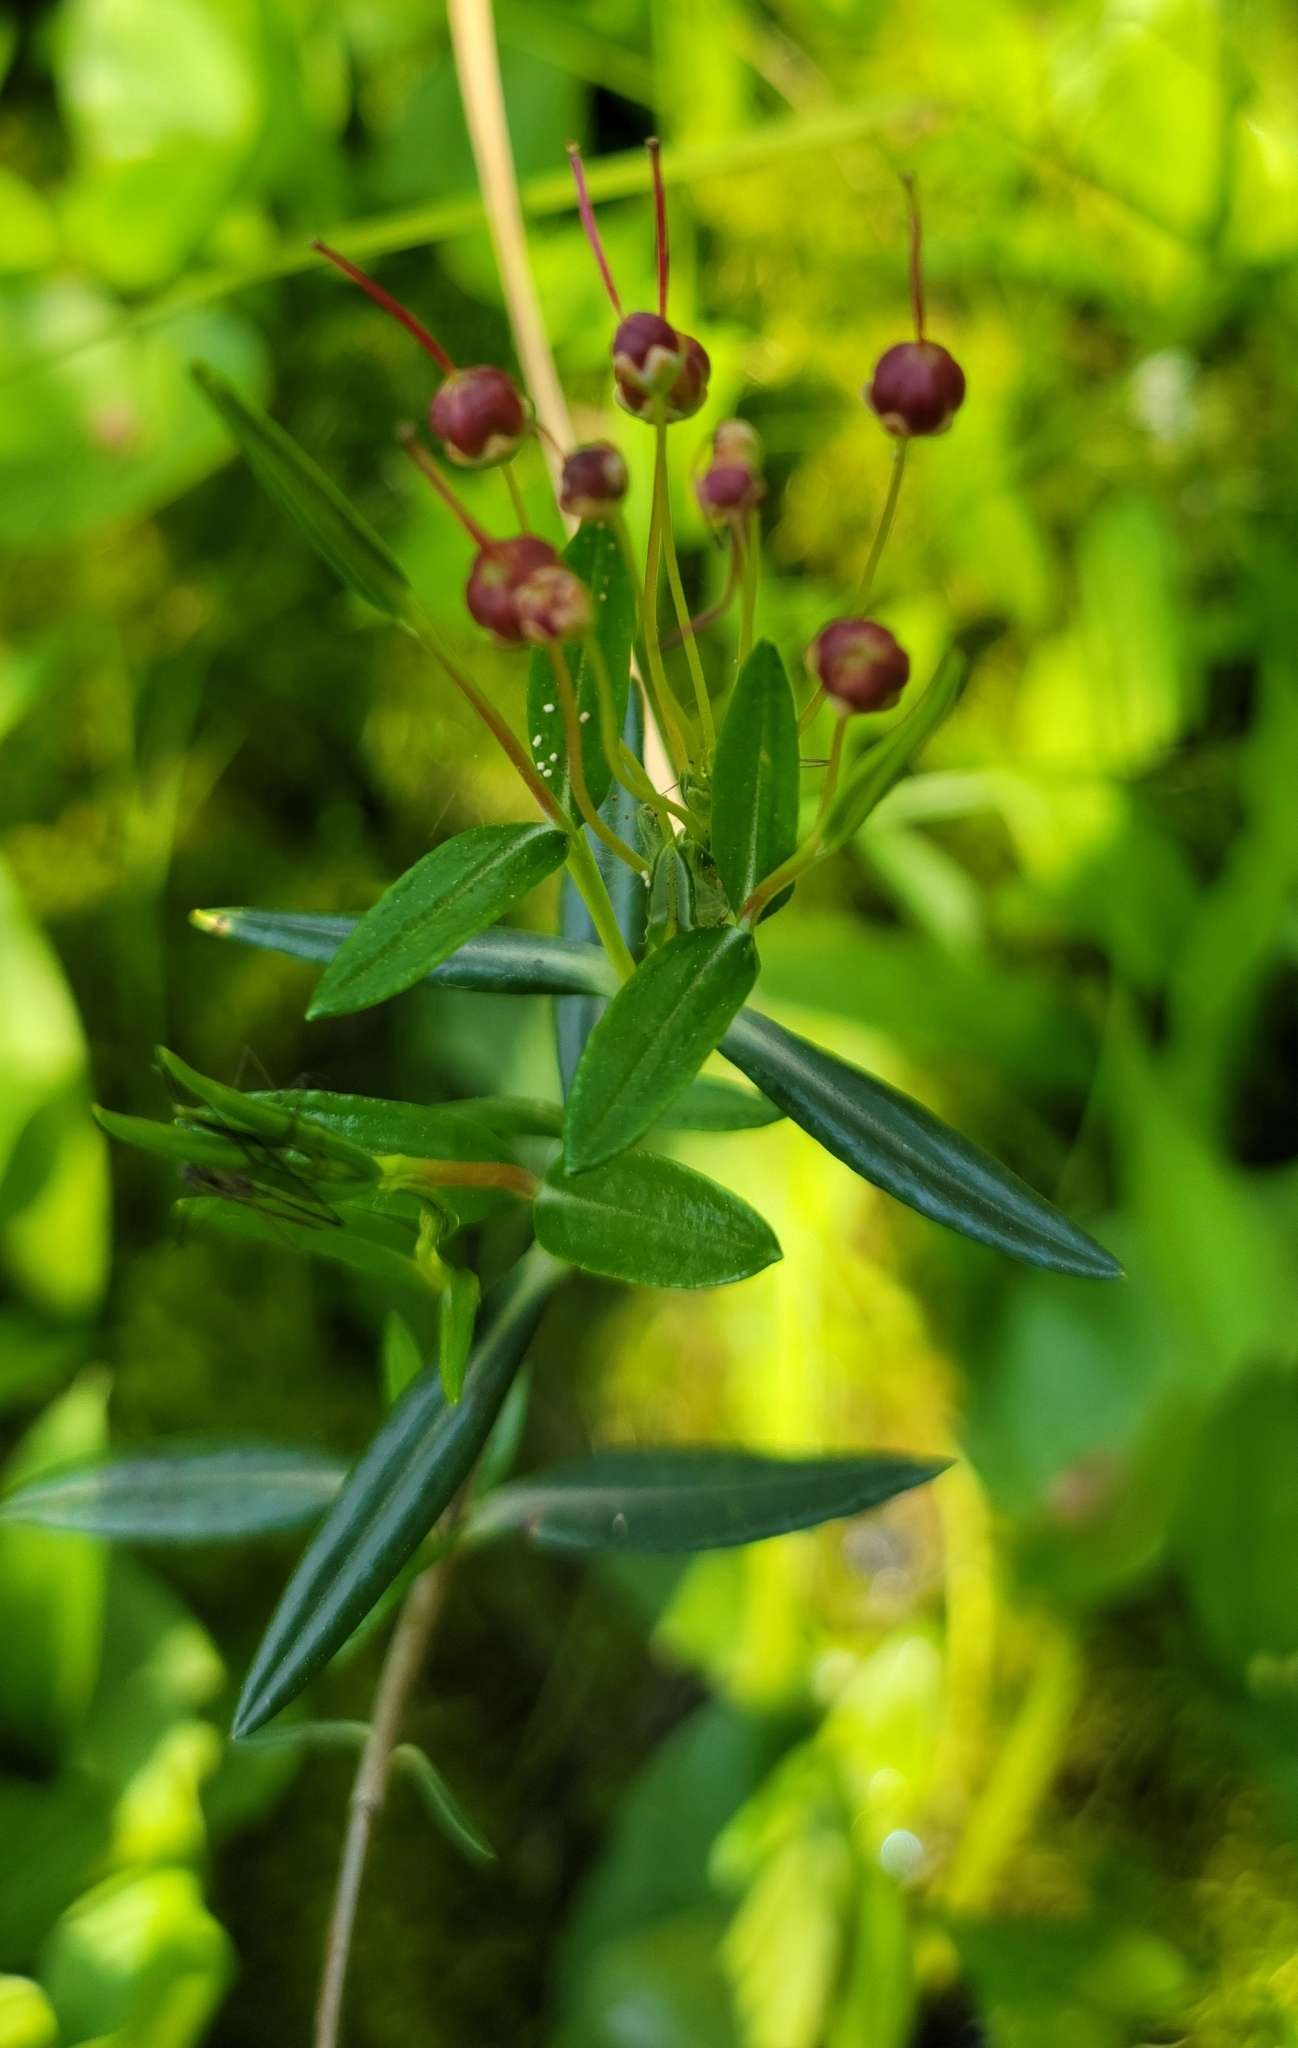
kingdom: Plantae
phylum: Tracheophyta
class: Magnoliopsida
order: Ericales
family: Ericaceae
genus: Kalmia
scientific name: Kalmia polifolia
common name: Bog-laurel
